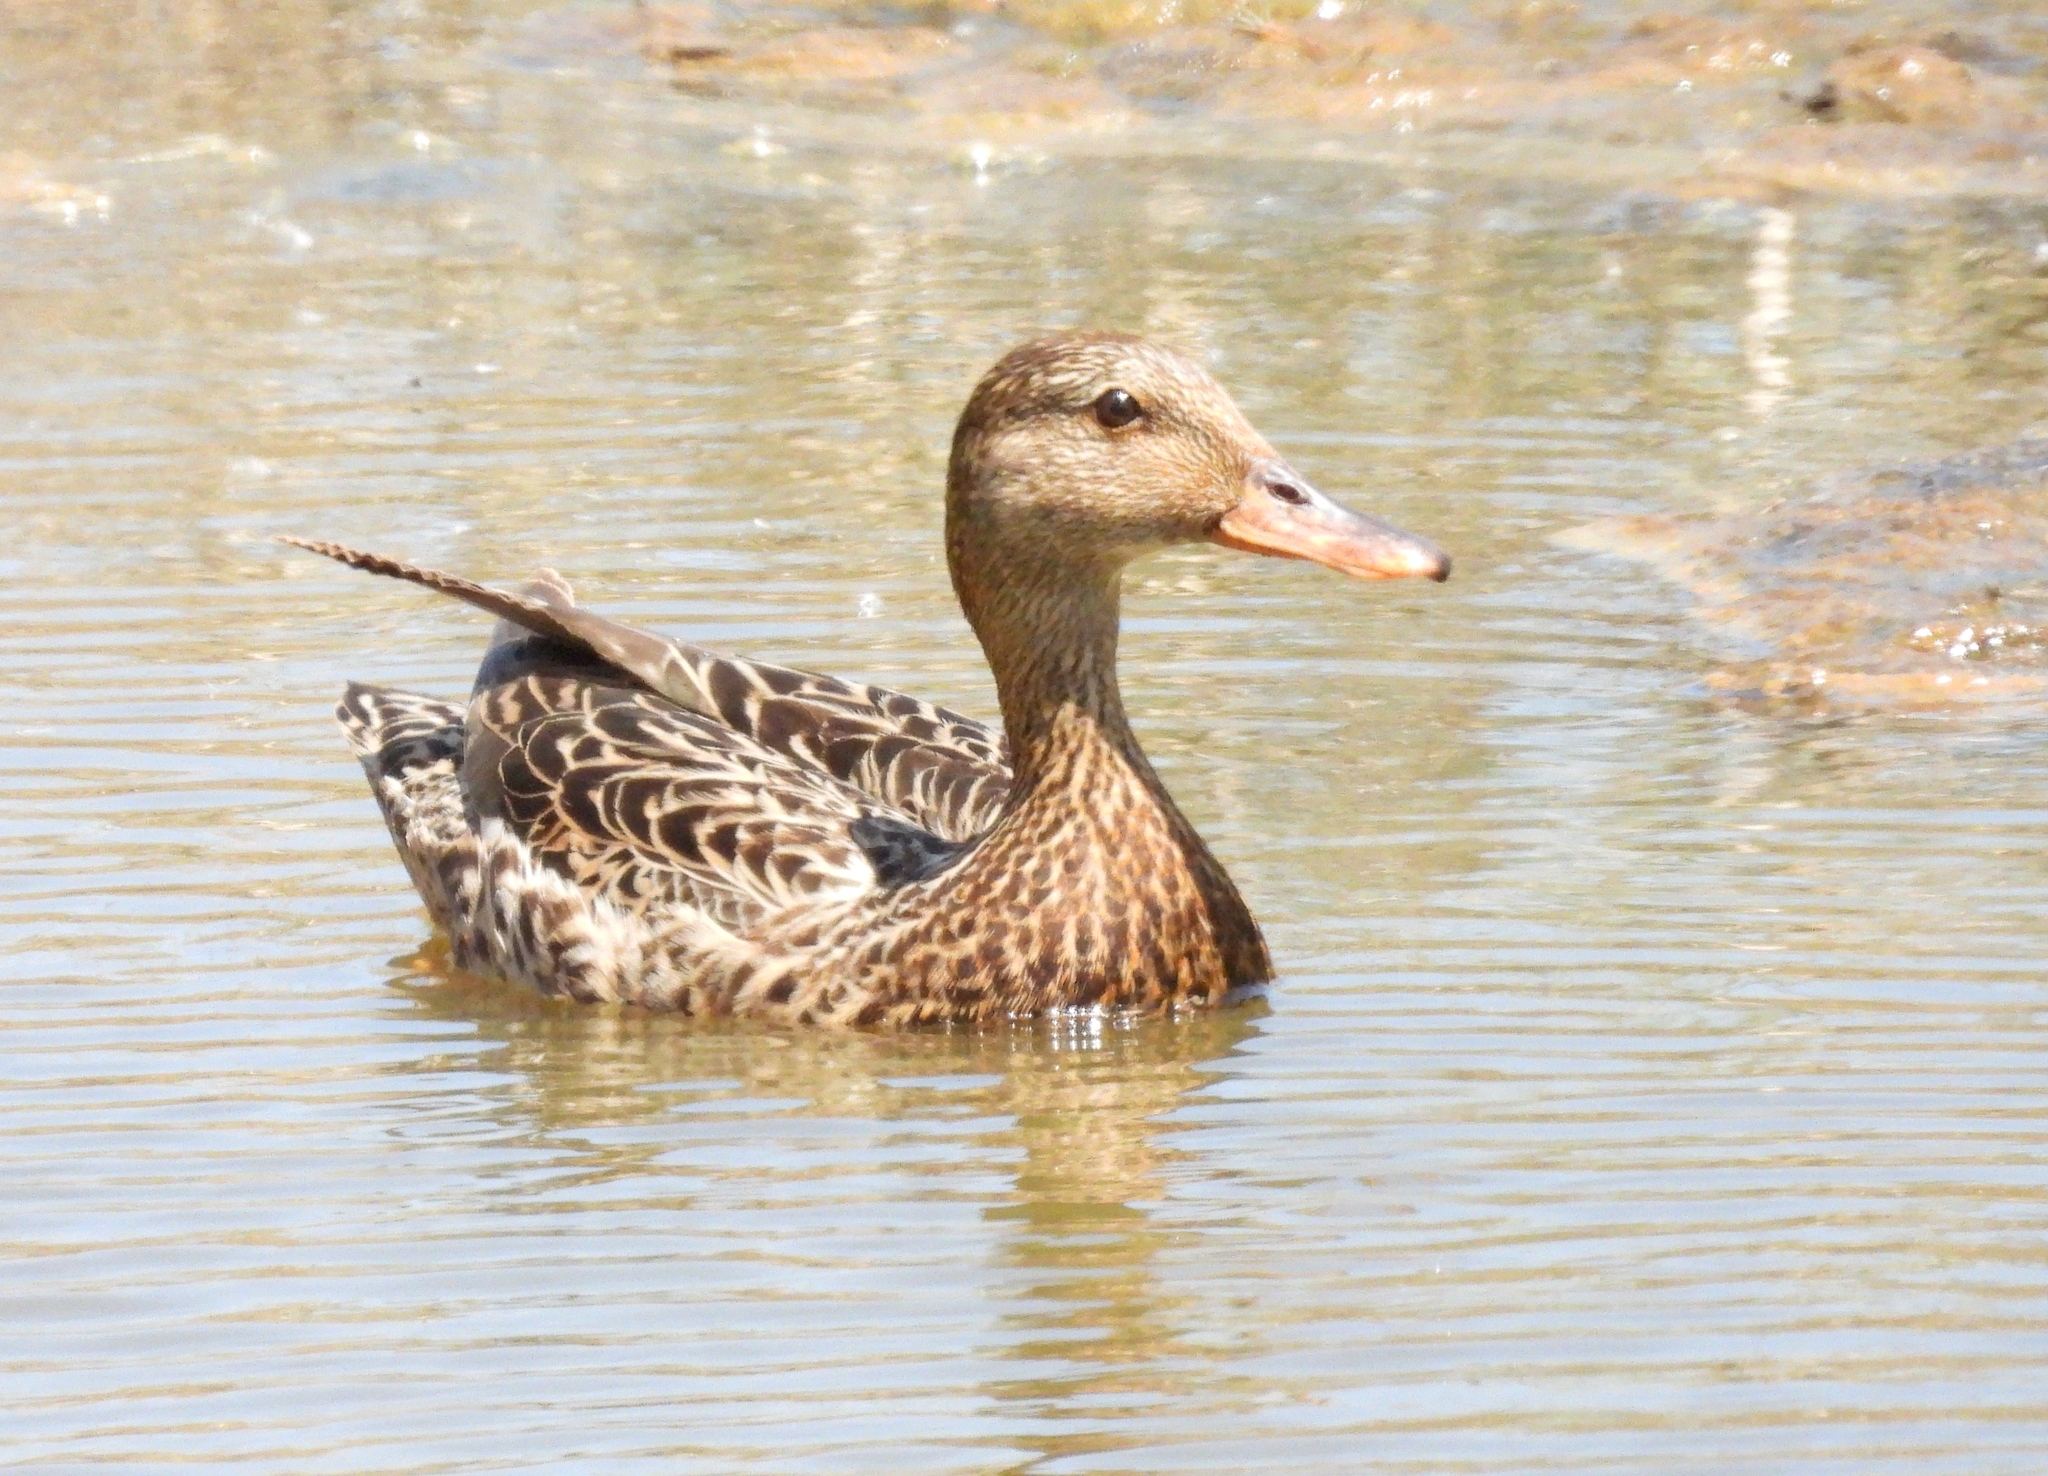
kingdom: Animalia
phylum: Chordata
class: Aves
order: Anseriformes
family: Anatidae
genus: Anas
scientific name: Anas platyrhynchos
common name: Mallard
